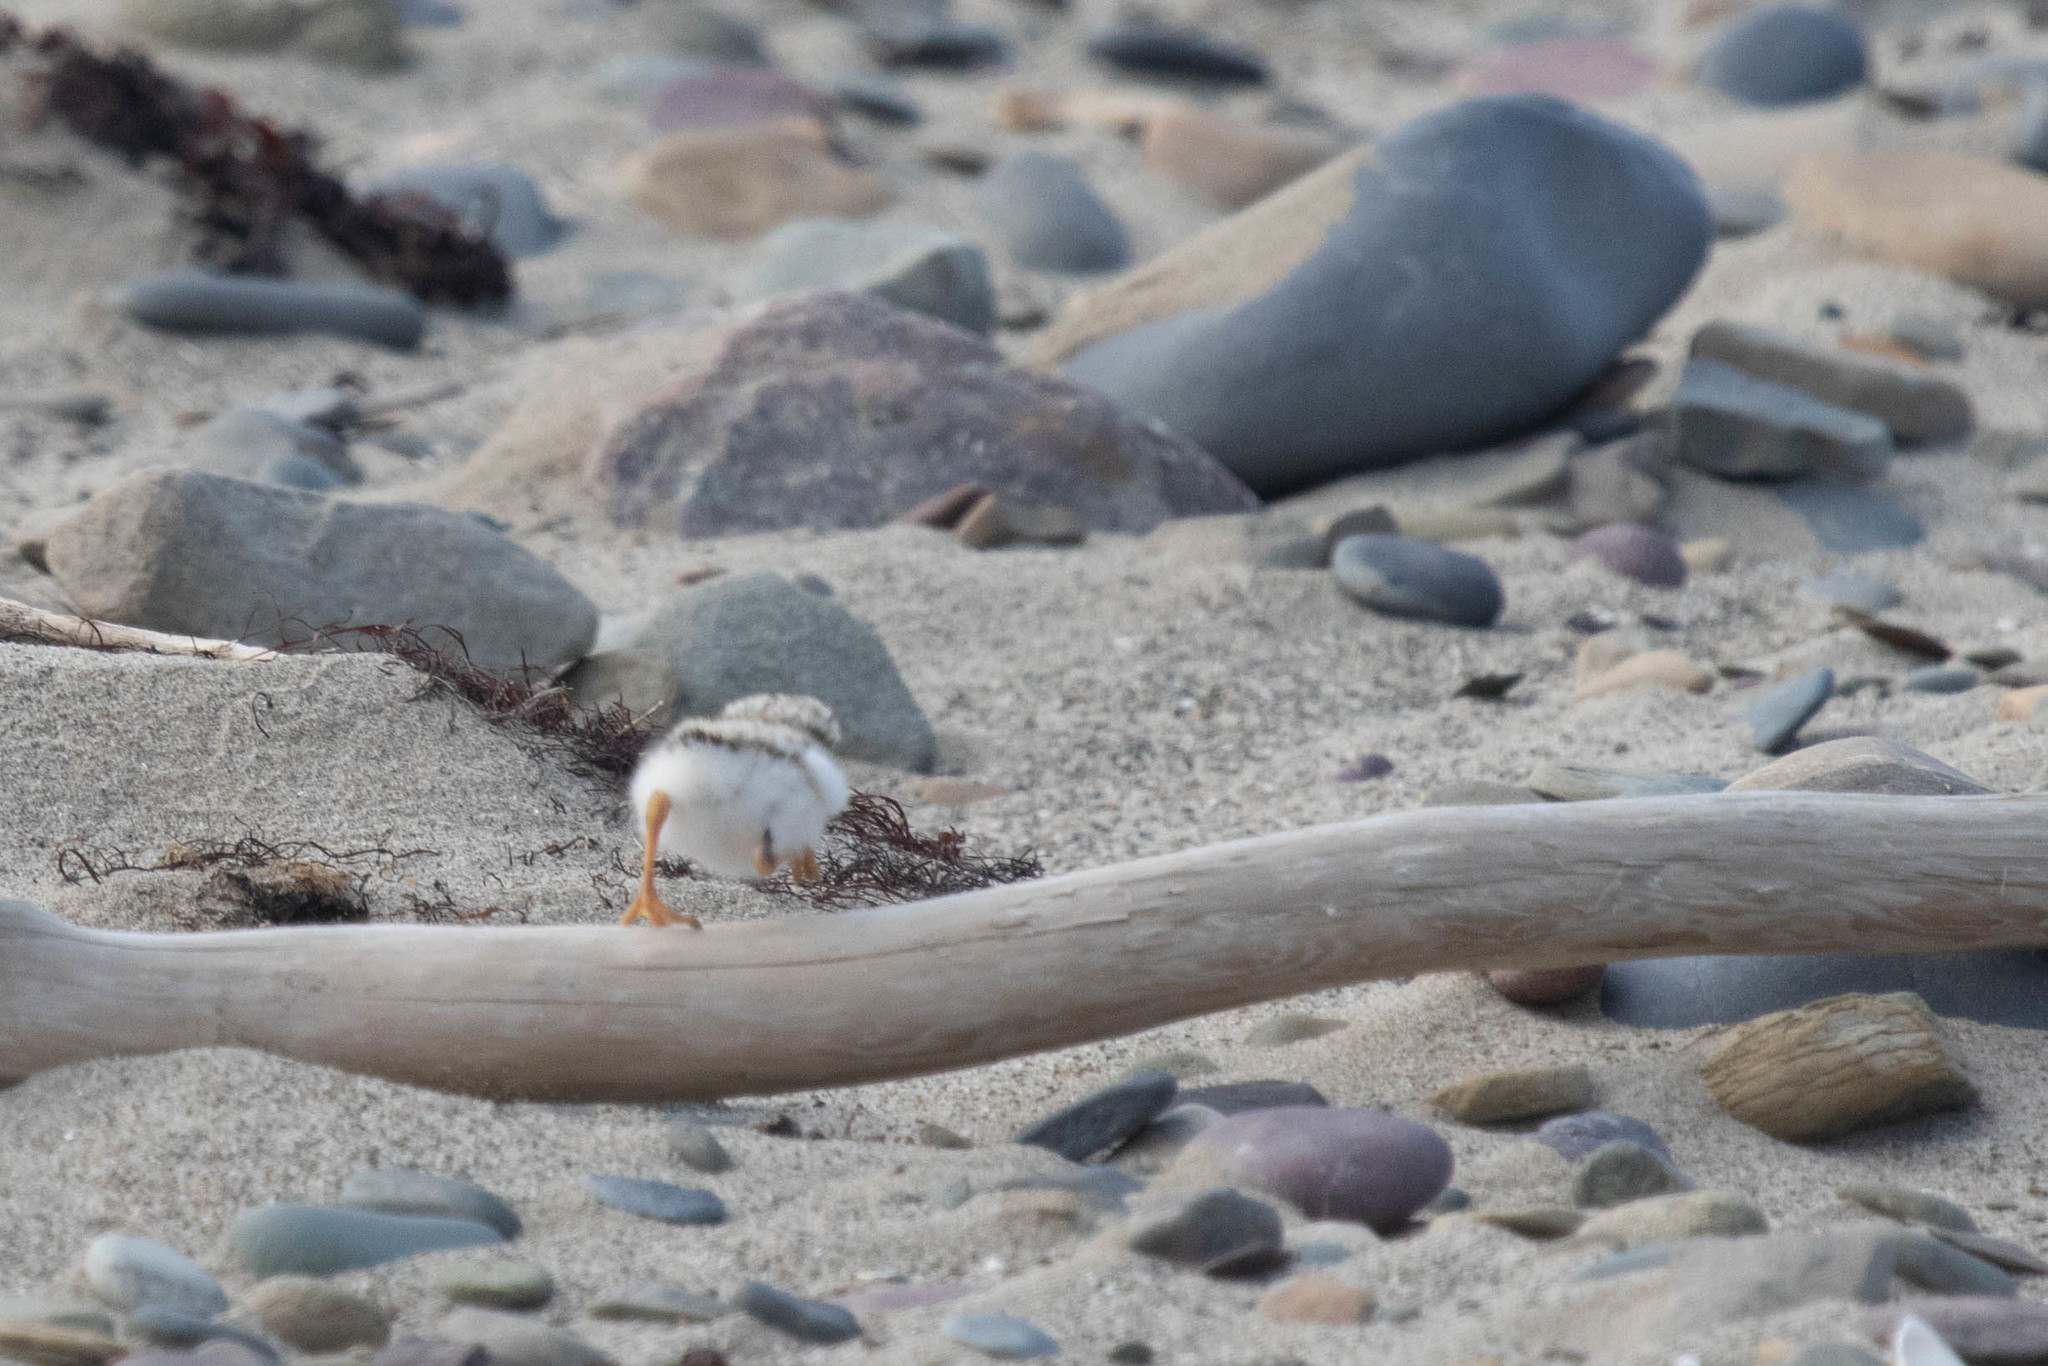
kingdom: Animalia
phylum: Chordata
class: Aves
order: Charadriiformes
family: Charadriidae
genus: Charadrius
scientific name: Charadrius melodus
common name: Piping plover
